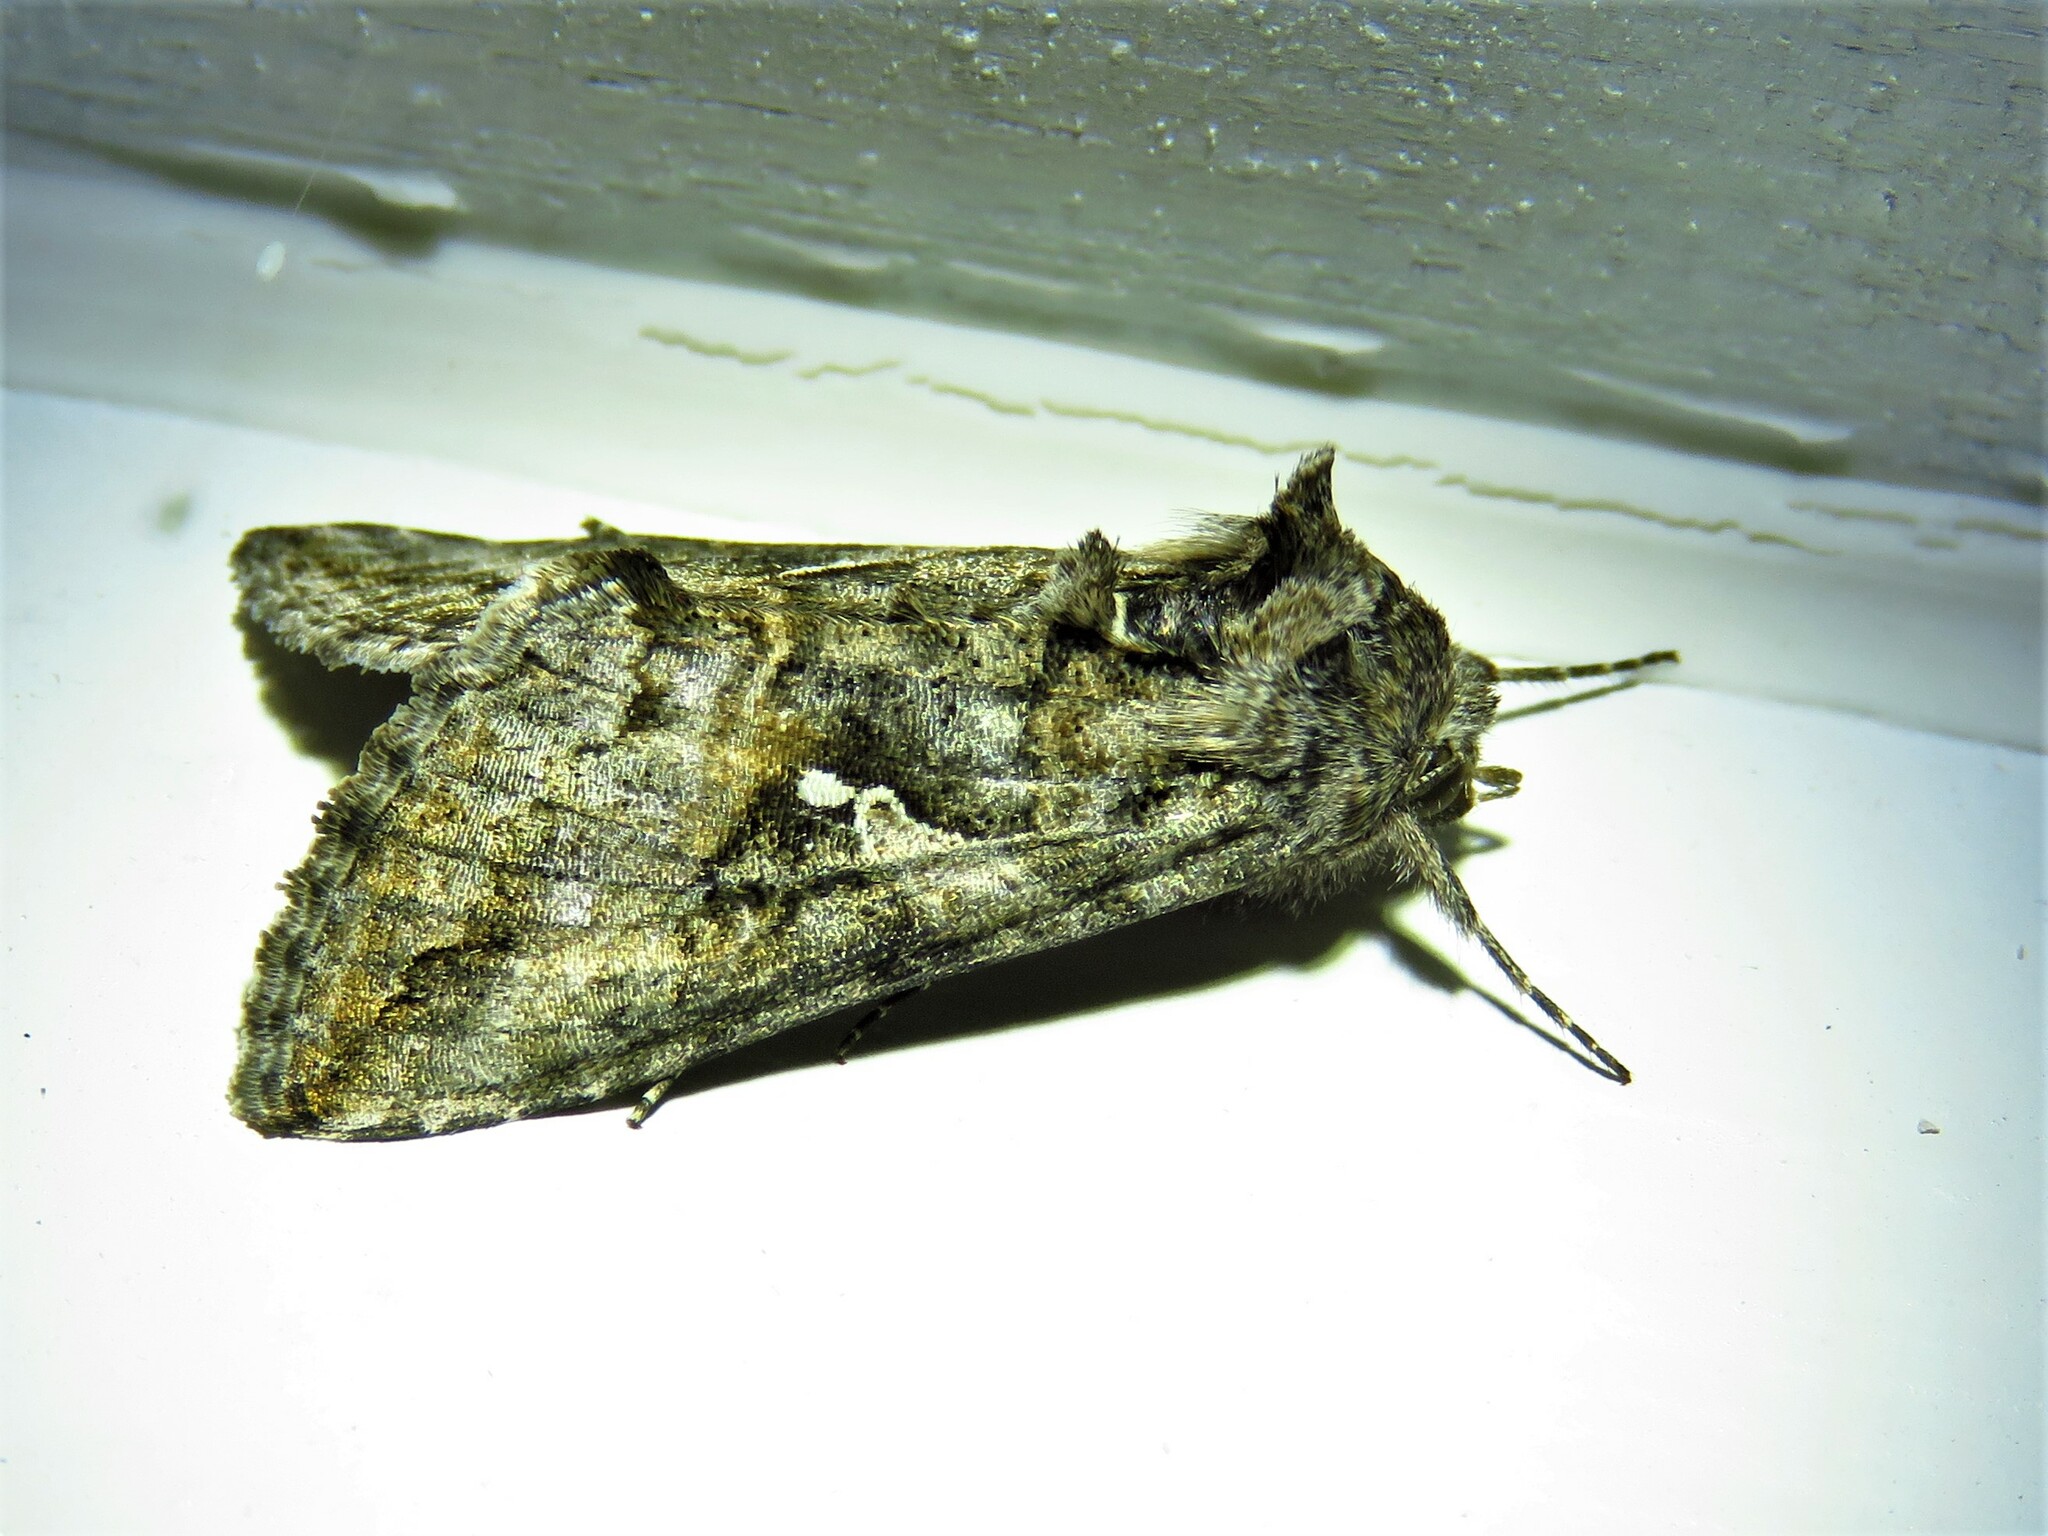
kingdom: Animalia
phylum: Arthropoda
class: Insecta
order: Lepidoptera
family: Noctuidae
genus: Rachiplusia
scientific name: Rachiplusia ou
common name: Gray looper moth
